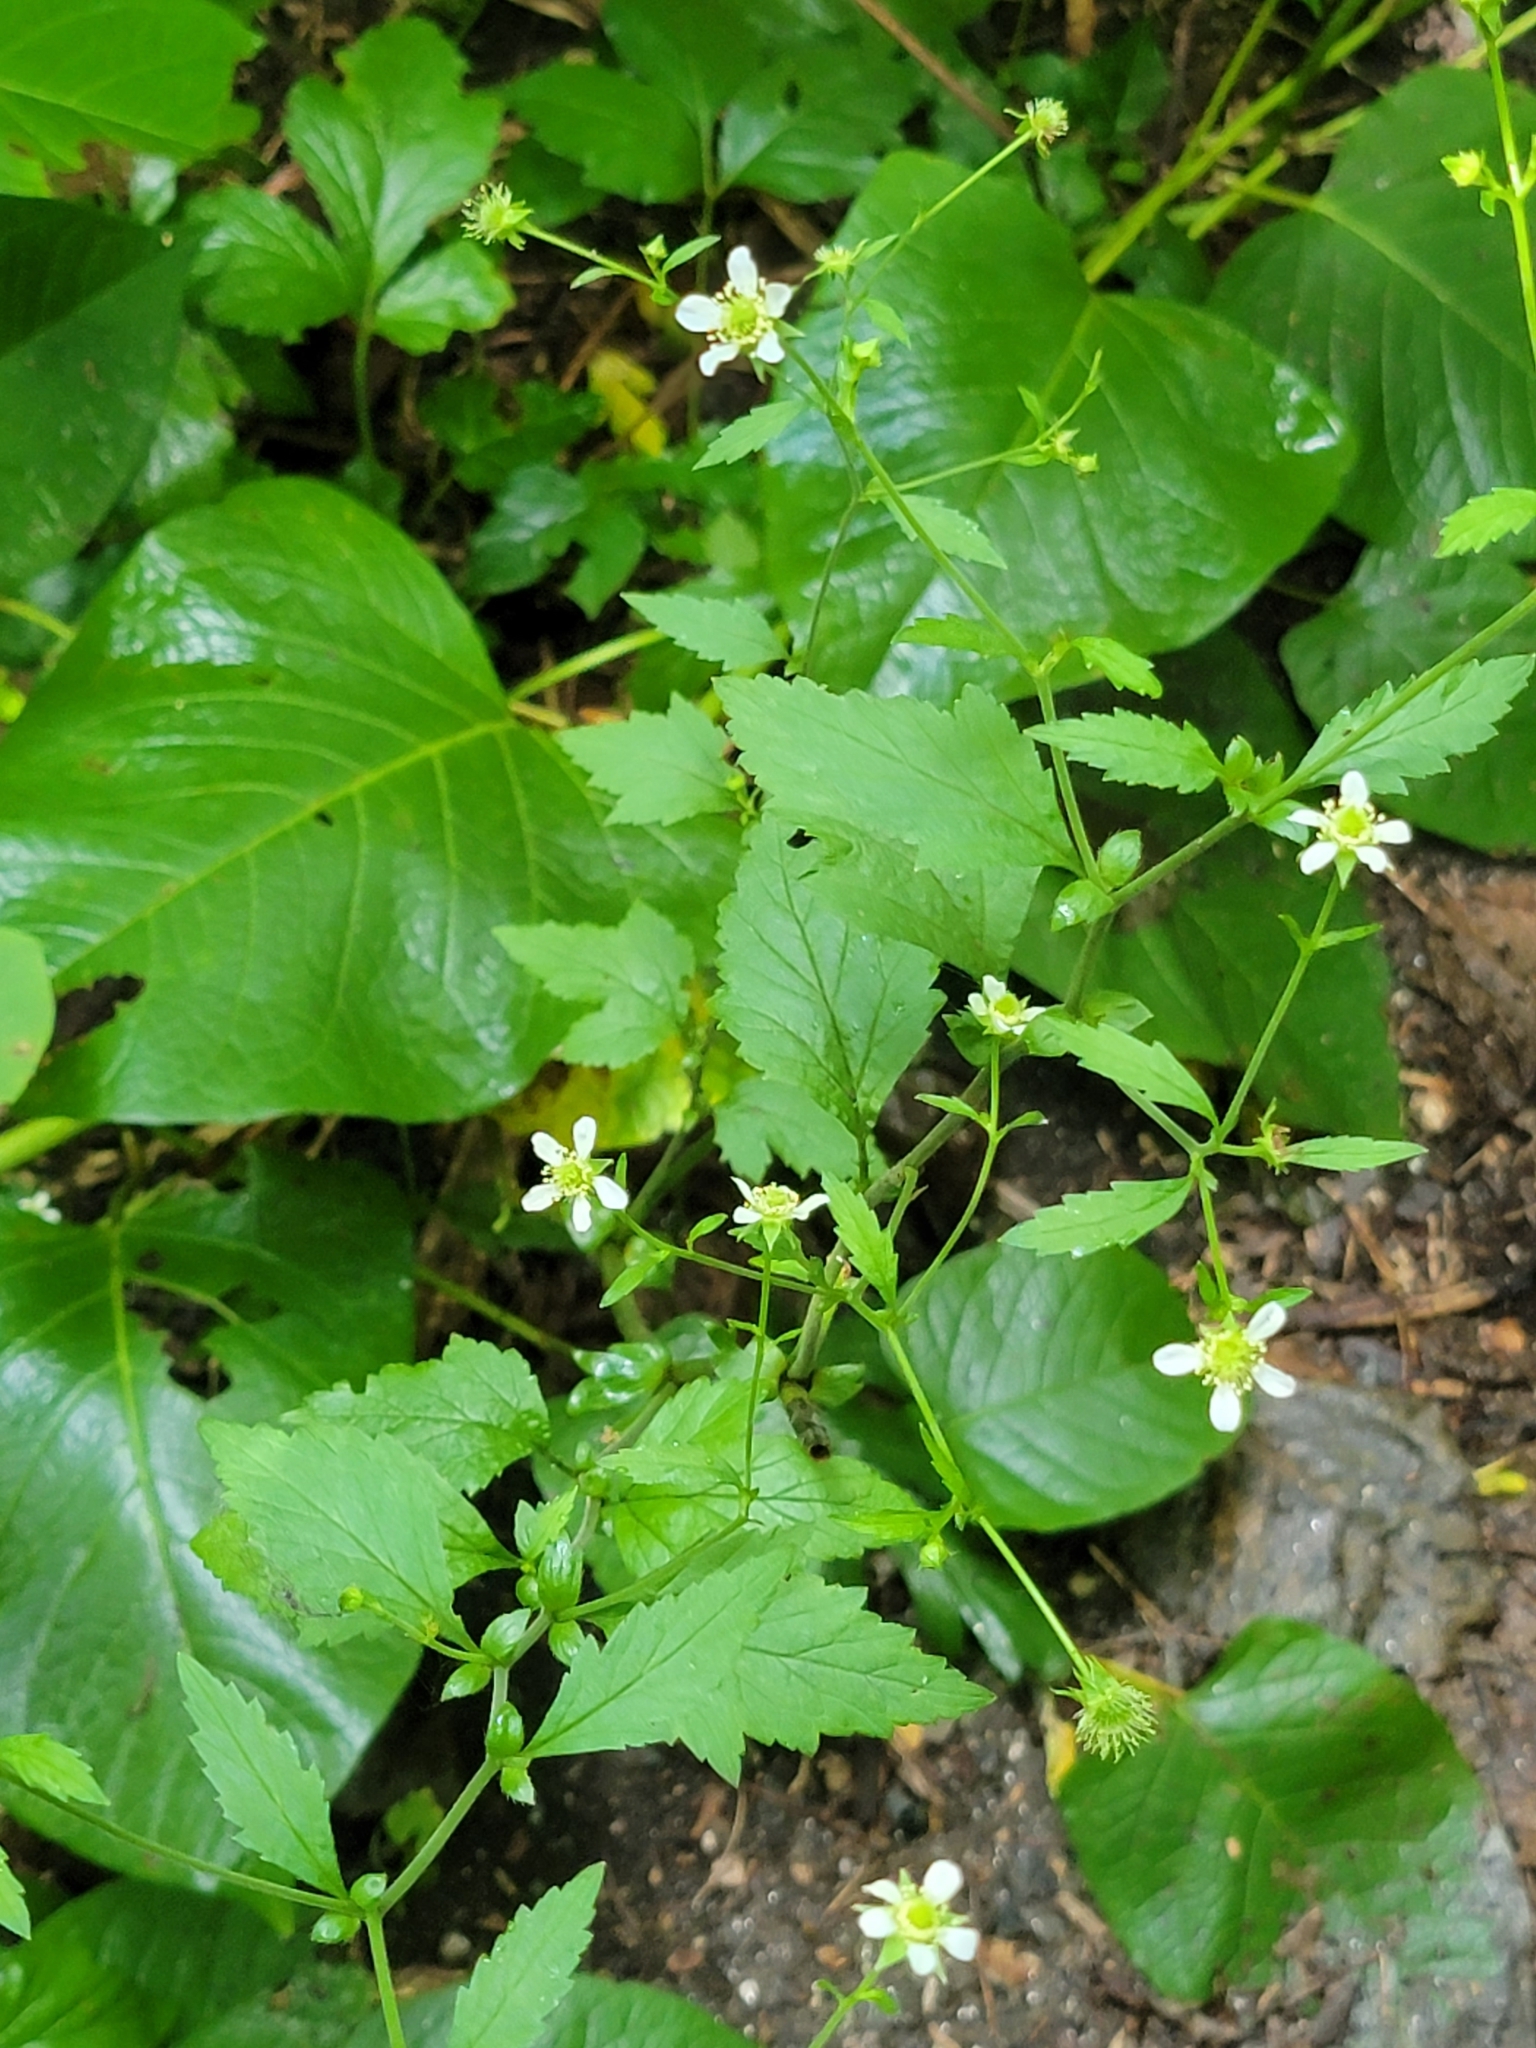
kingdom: Plantae
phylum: Tracheophyta
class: Magnoliopsida
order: Rosales
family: Rosaceae
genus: Geum
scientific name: Geum canadense
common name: White avens
